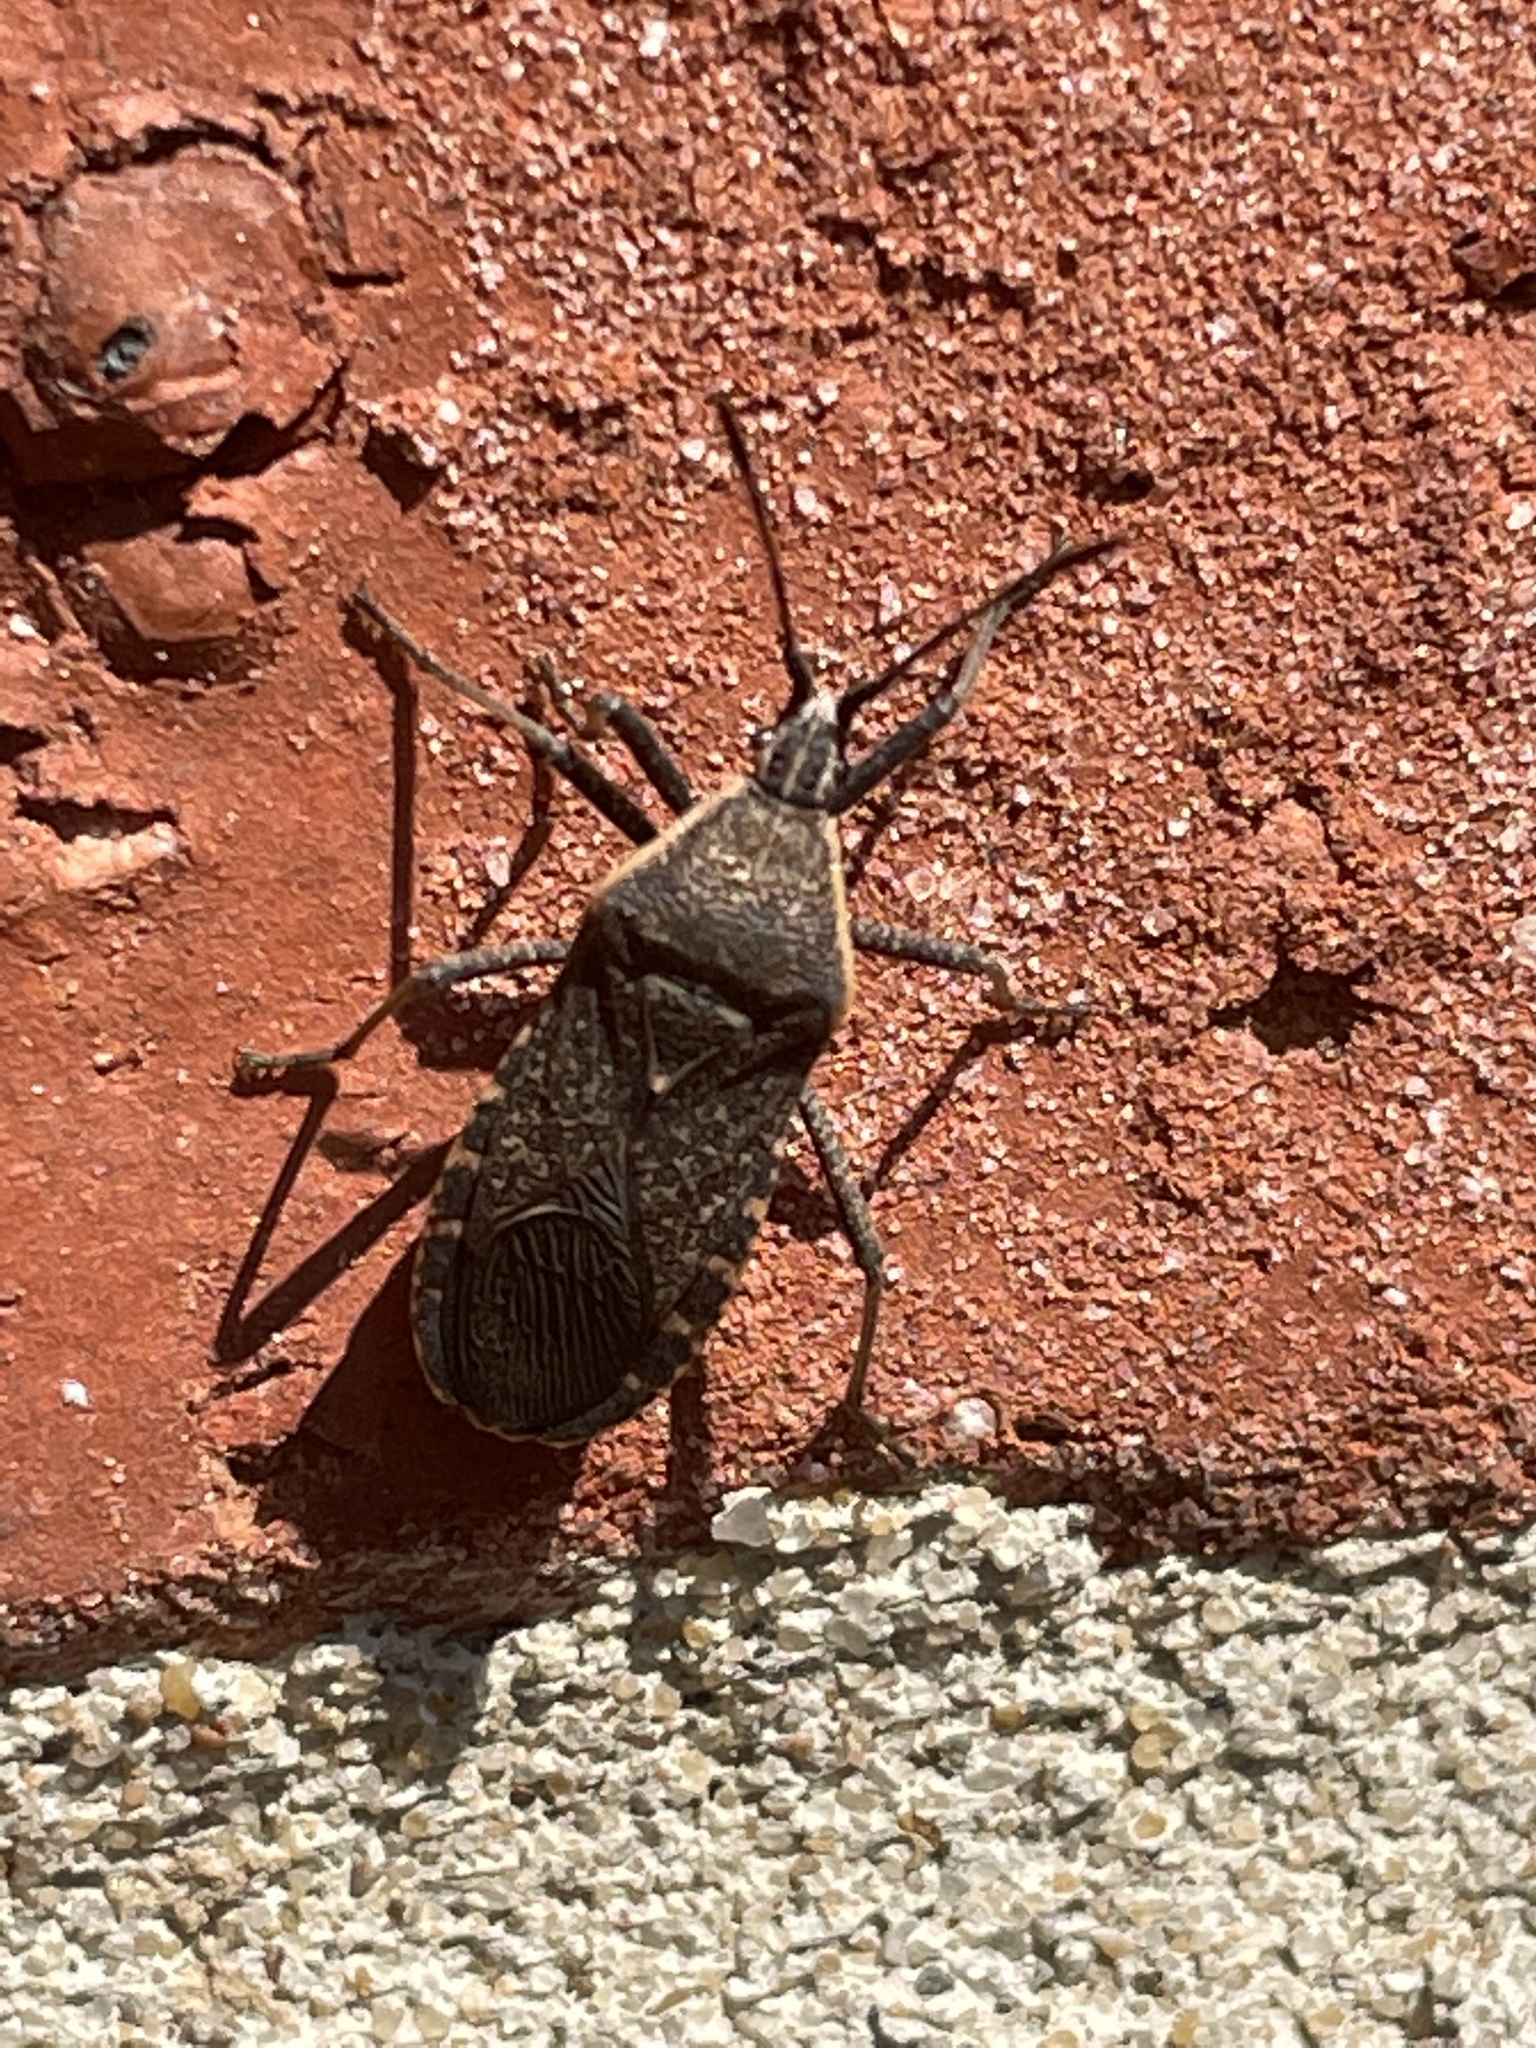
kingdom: Animalia
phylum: Arthropoda
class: Insecta
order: Hemiptera
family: Coreidae
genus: Anasa
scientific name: Anasa tristis
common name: Squash bug
